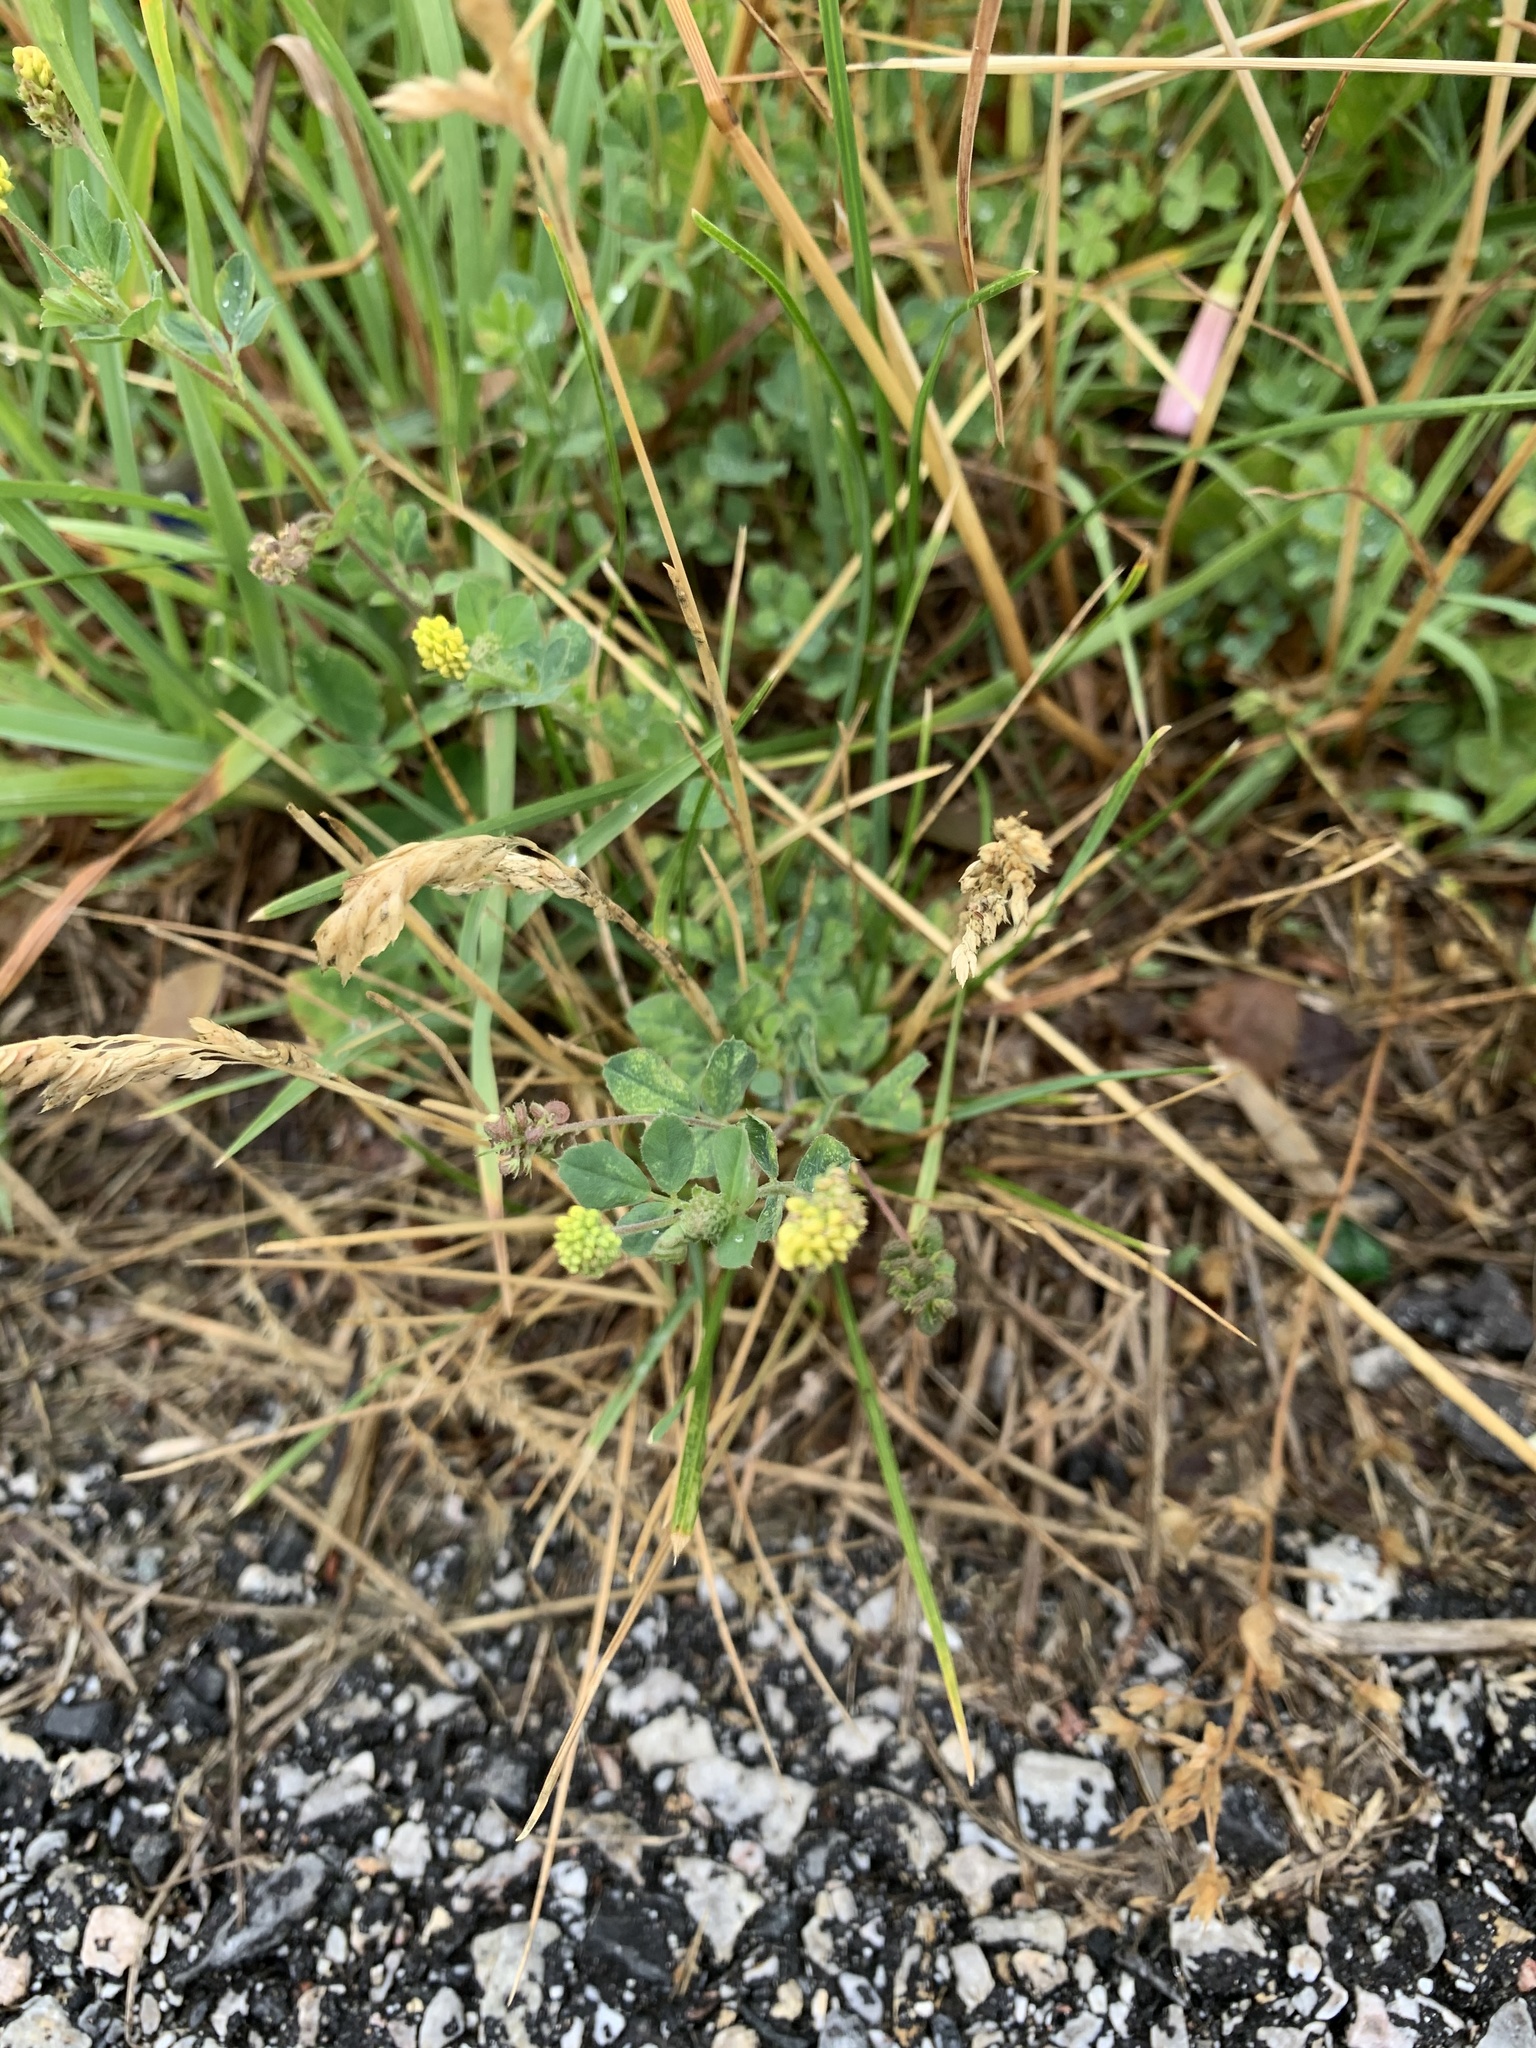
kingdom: Plantae
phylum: Tracheophyta
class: Magnoliopsida
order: Fabales
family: Fabaceae
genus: Medicago
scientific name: Medicago lupulina
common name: Black medick
